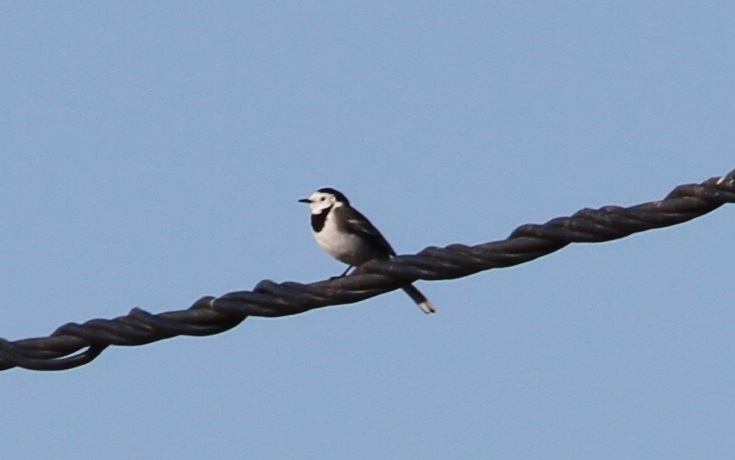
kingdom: Animalia
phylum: Chordata
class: Aves
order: Passeriformes
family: Motacillidae
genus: Motacilla
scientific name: Motacilla alba
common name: White wagtail
